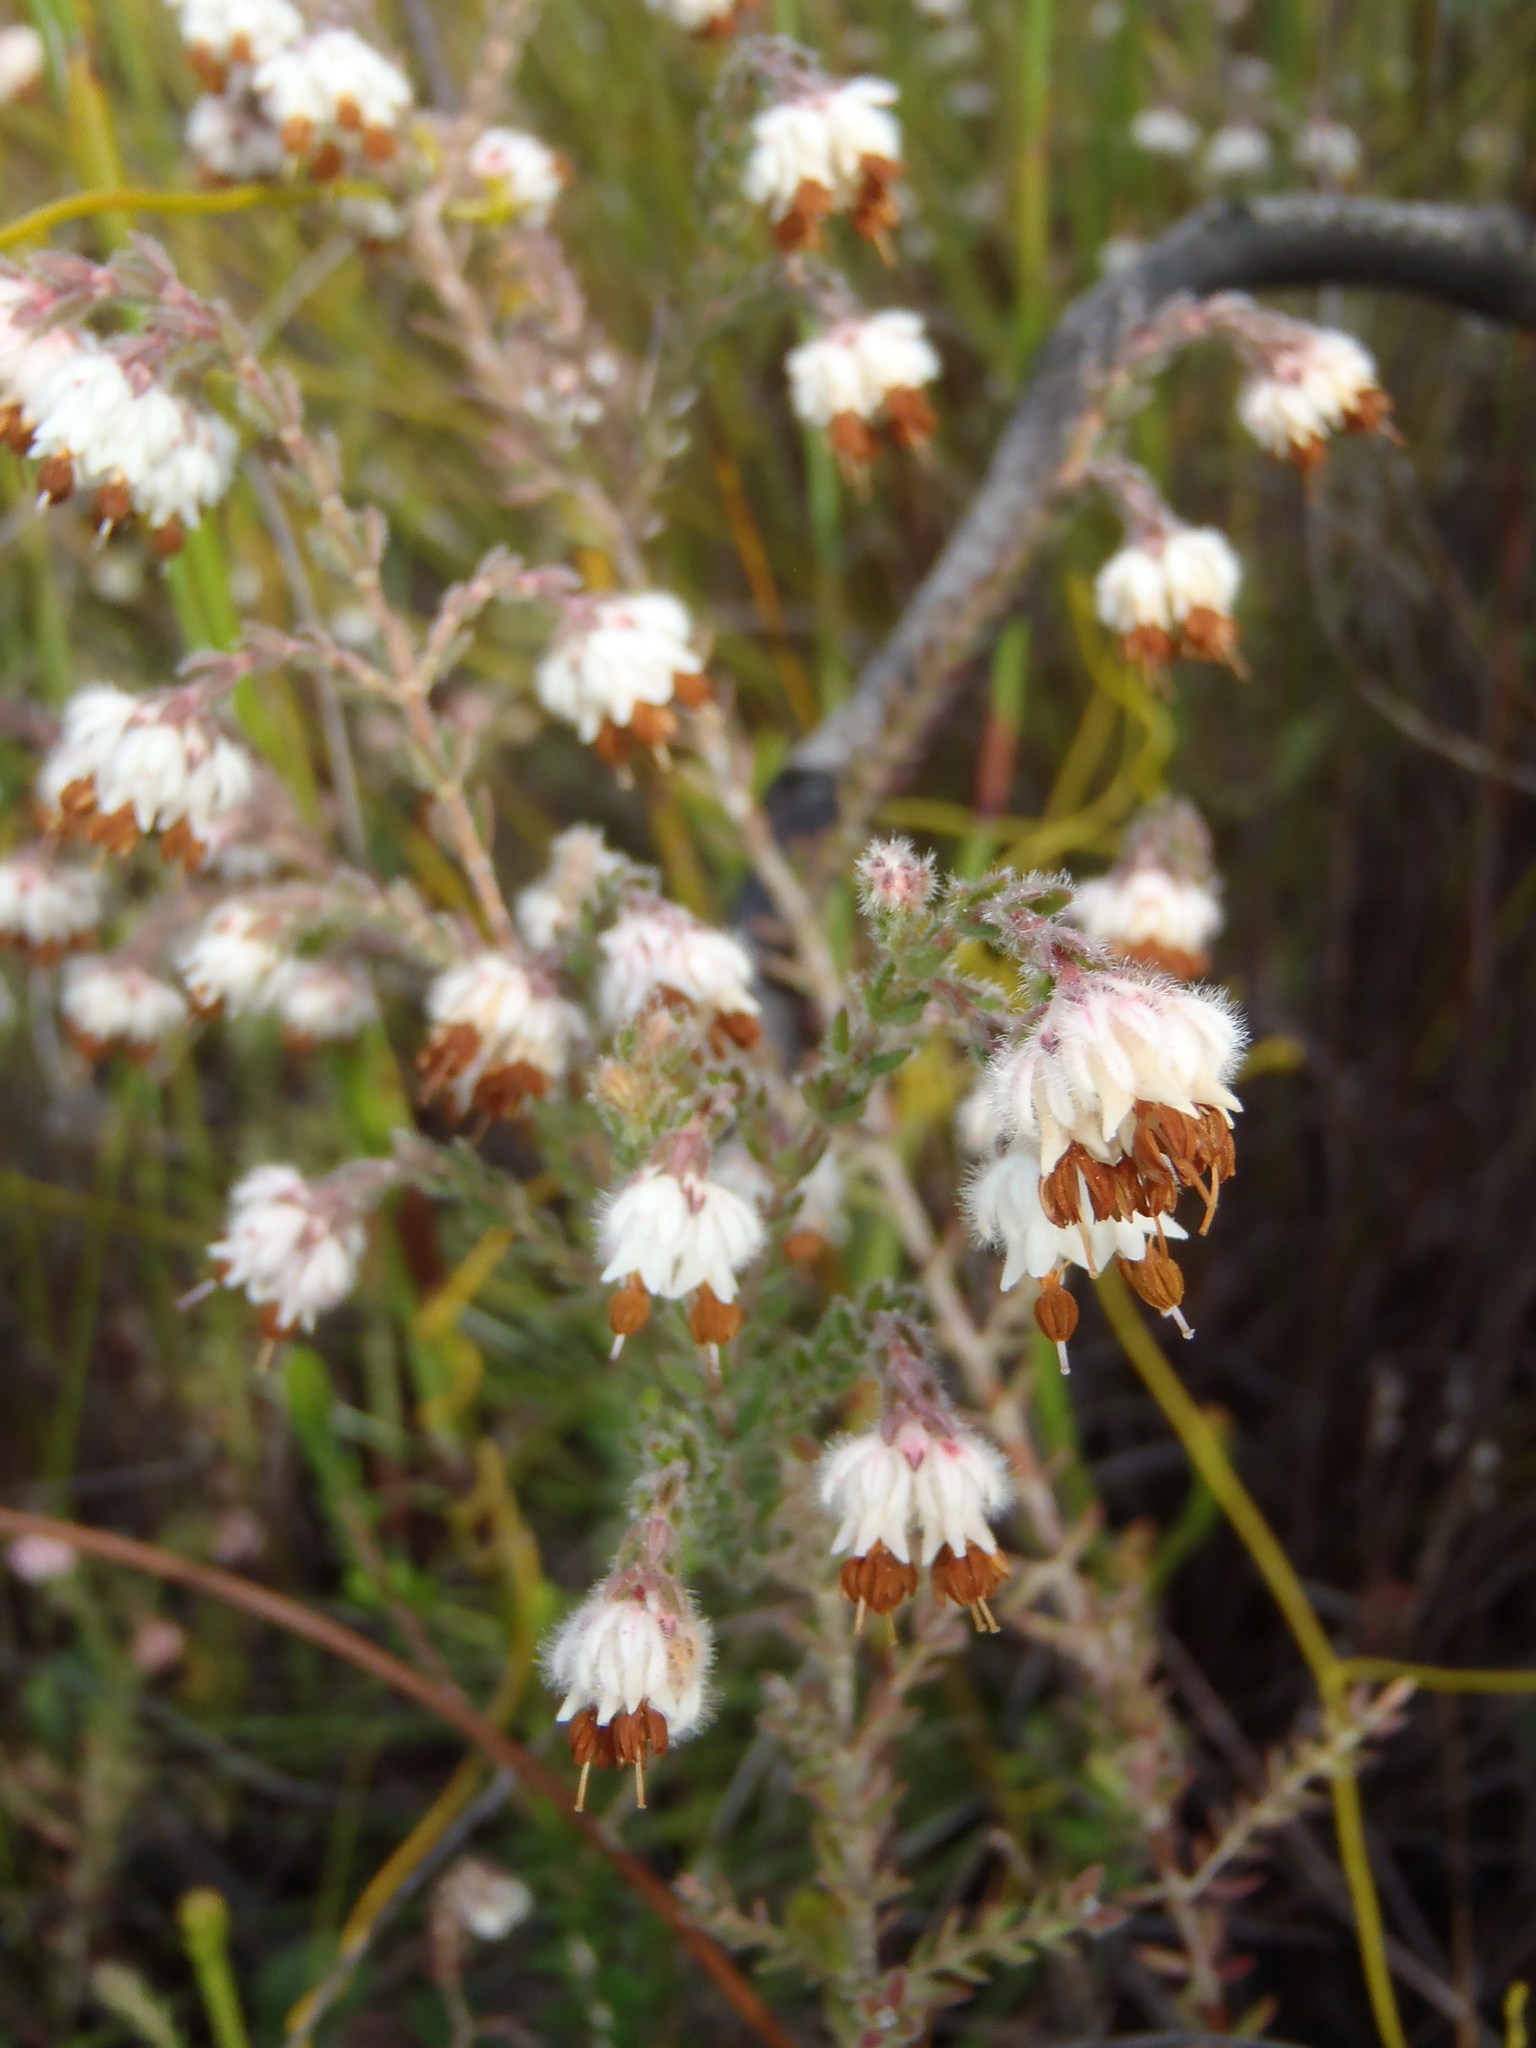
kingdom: Plantae
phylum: Tracheophyta
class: Magnoliopsida
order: Ericales
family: Ericaceae
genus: Erica
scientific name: Erica flaccida
